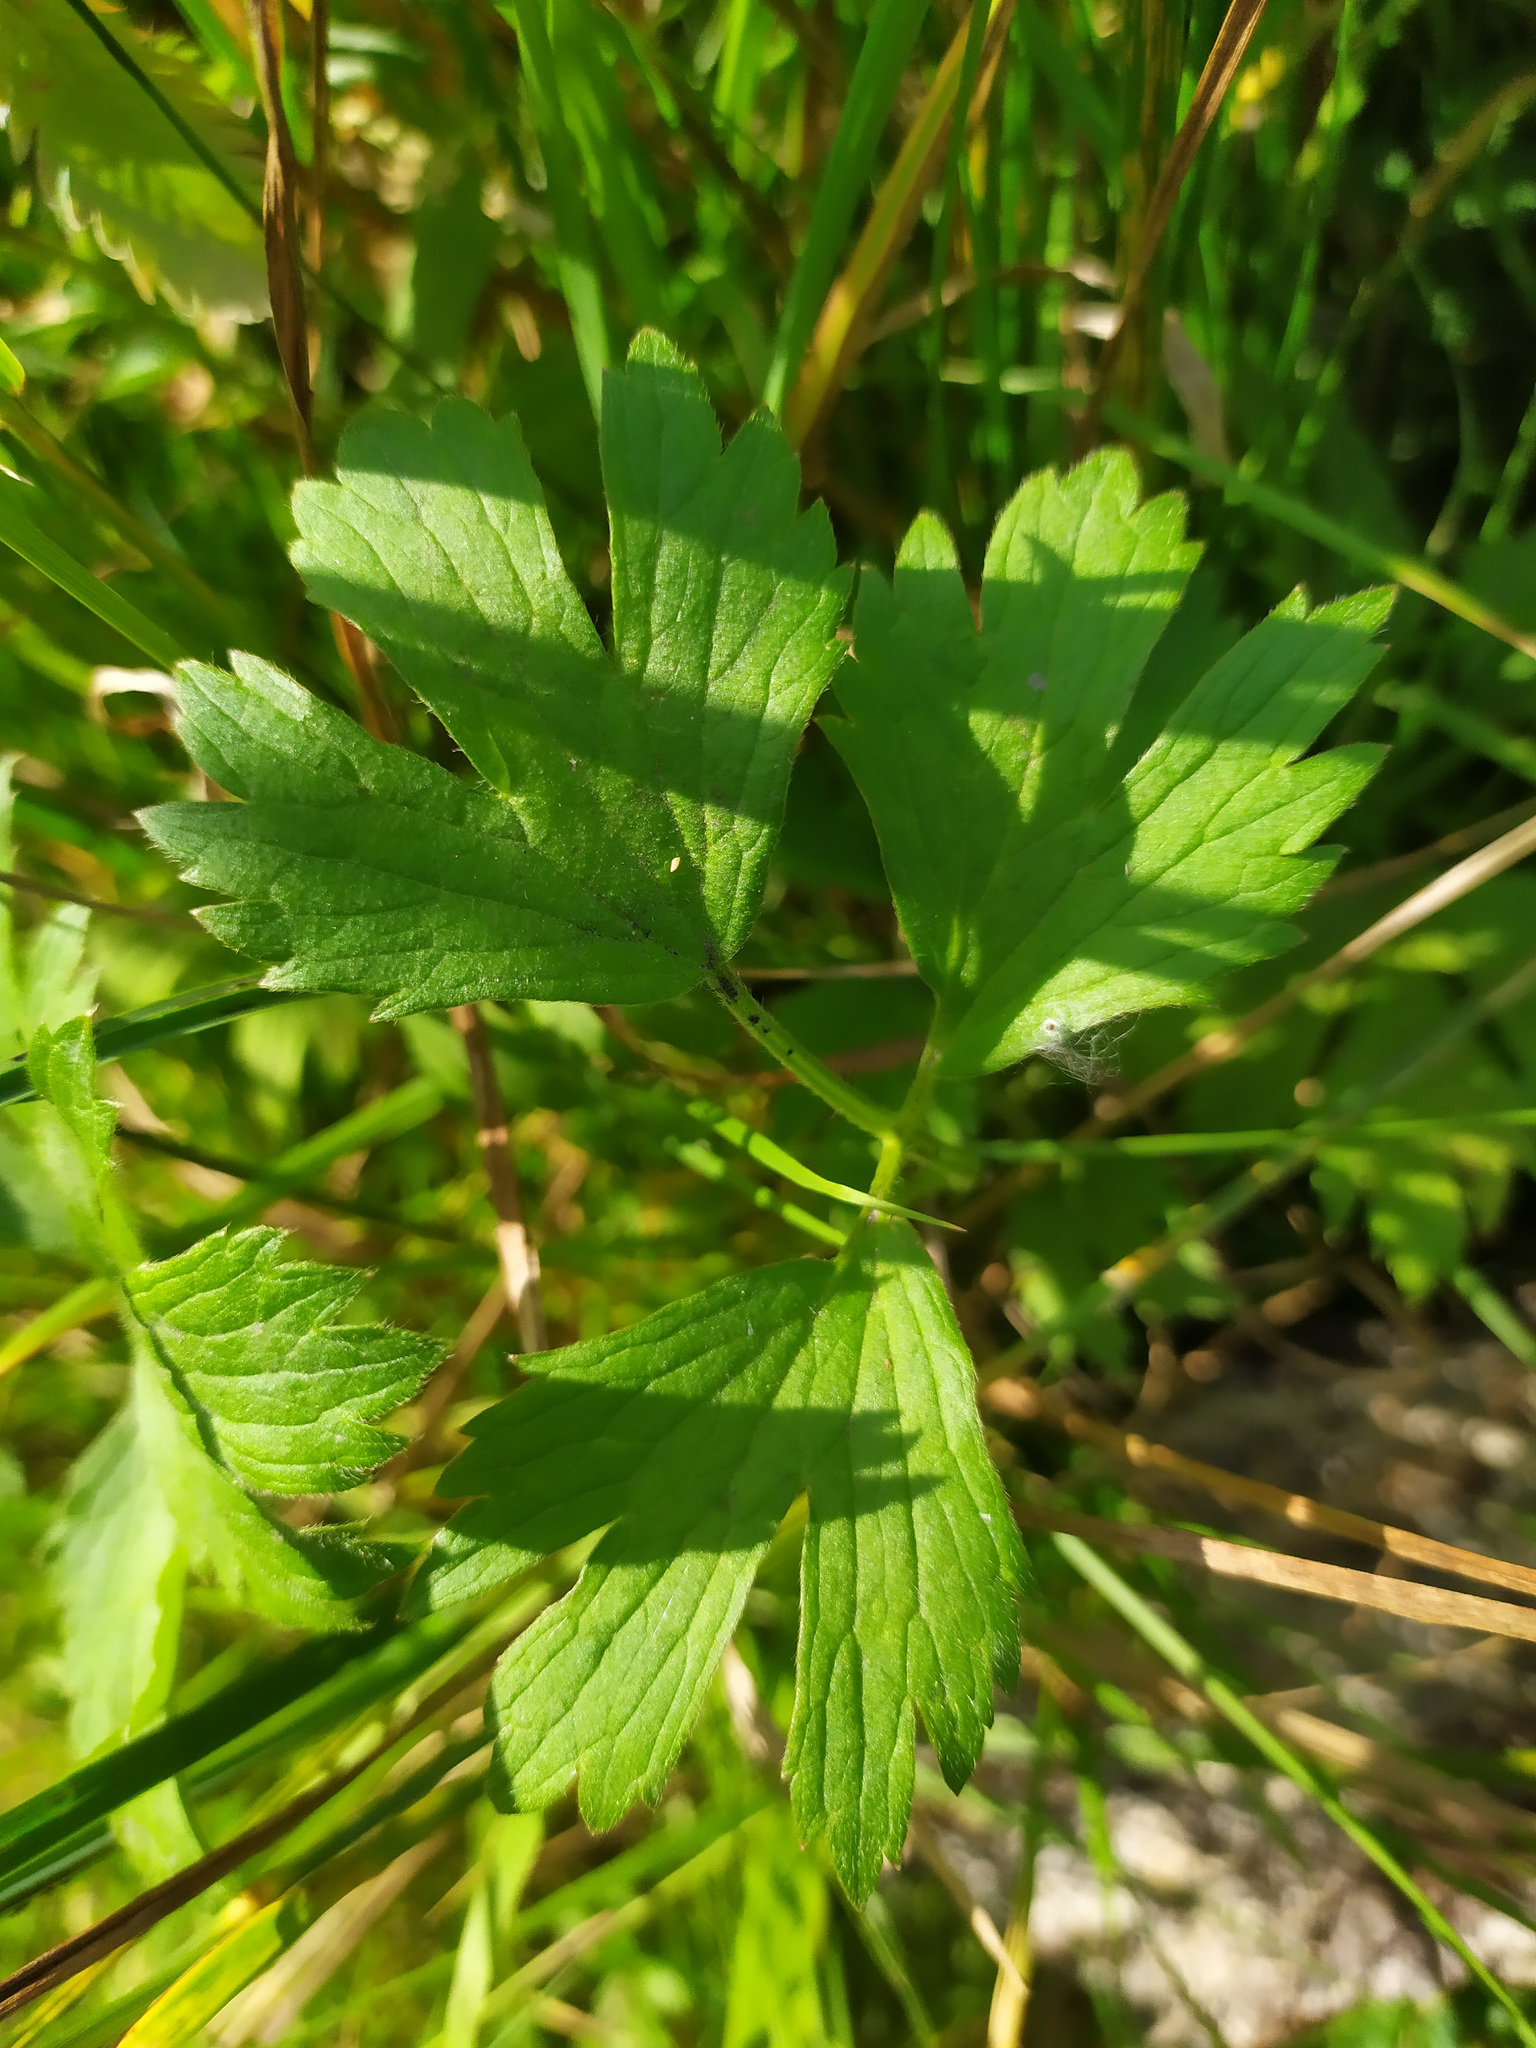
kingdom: Plantae
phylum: Tracheophyta
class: Magnoliopsida
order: Ranunculales
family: Ranunculaceae
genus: Ranunculus
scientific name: Ranunculus repens
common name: Creeping buttercup
